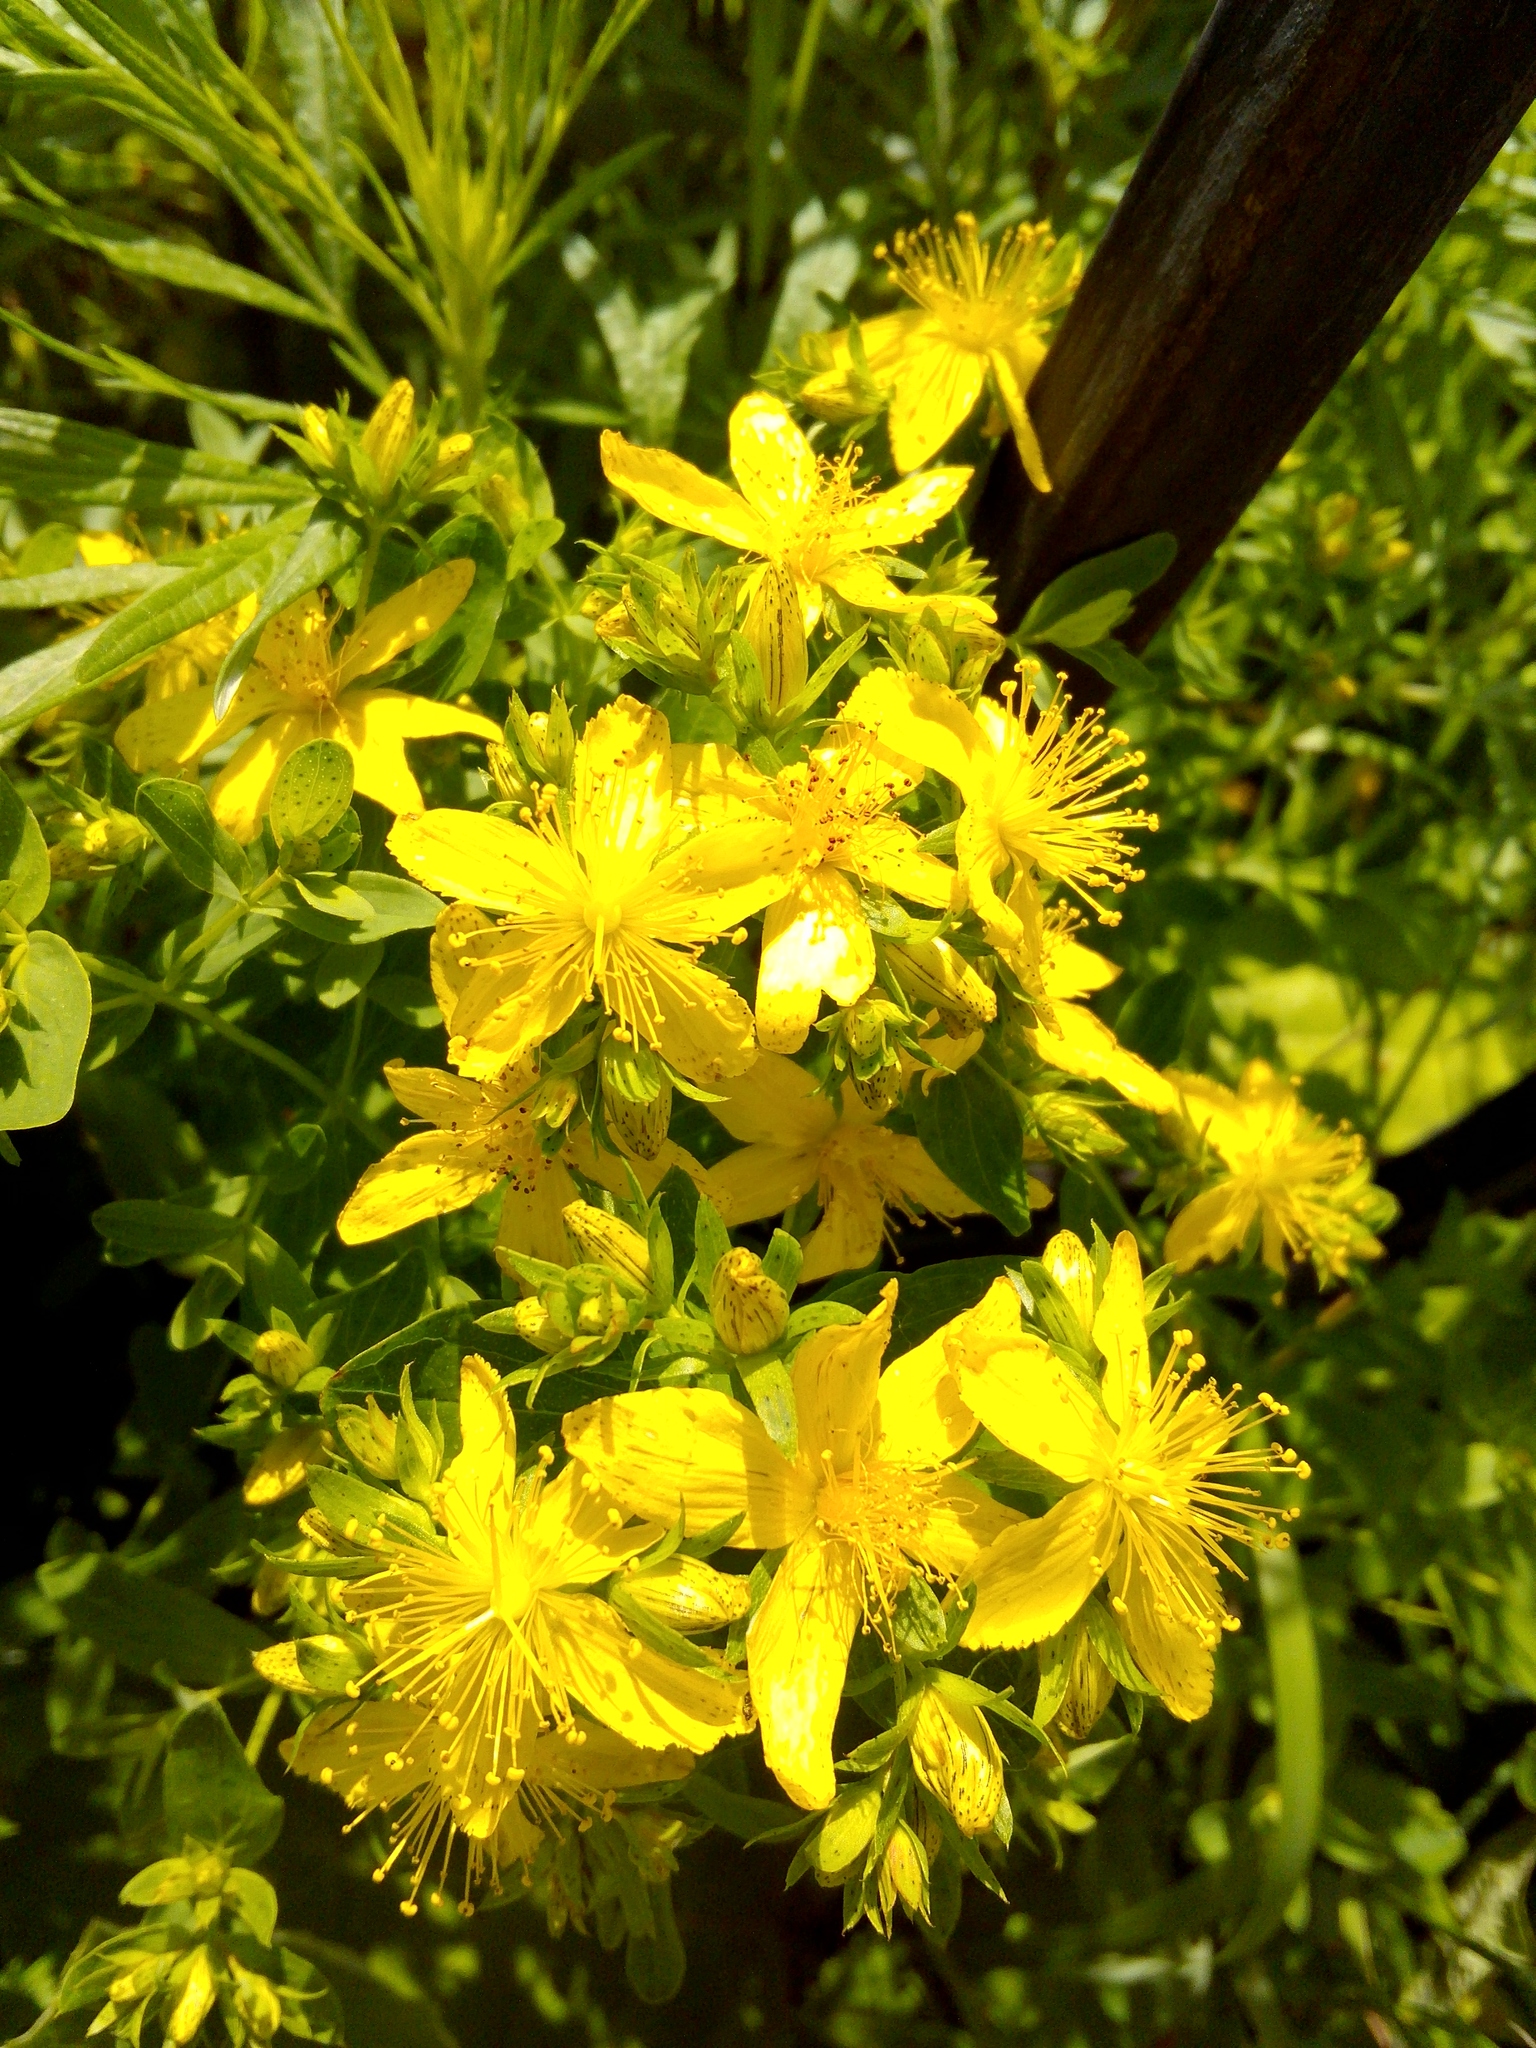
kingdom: Plantae
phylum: Tracheophyta
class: Magnoliopsida
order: Malpighiales
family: Hypericaceae
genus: Hypericum
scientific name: Hypericum perforatum
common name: Common st. johnswort
